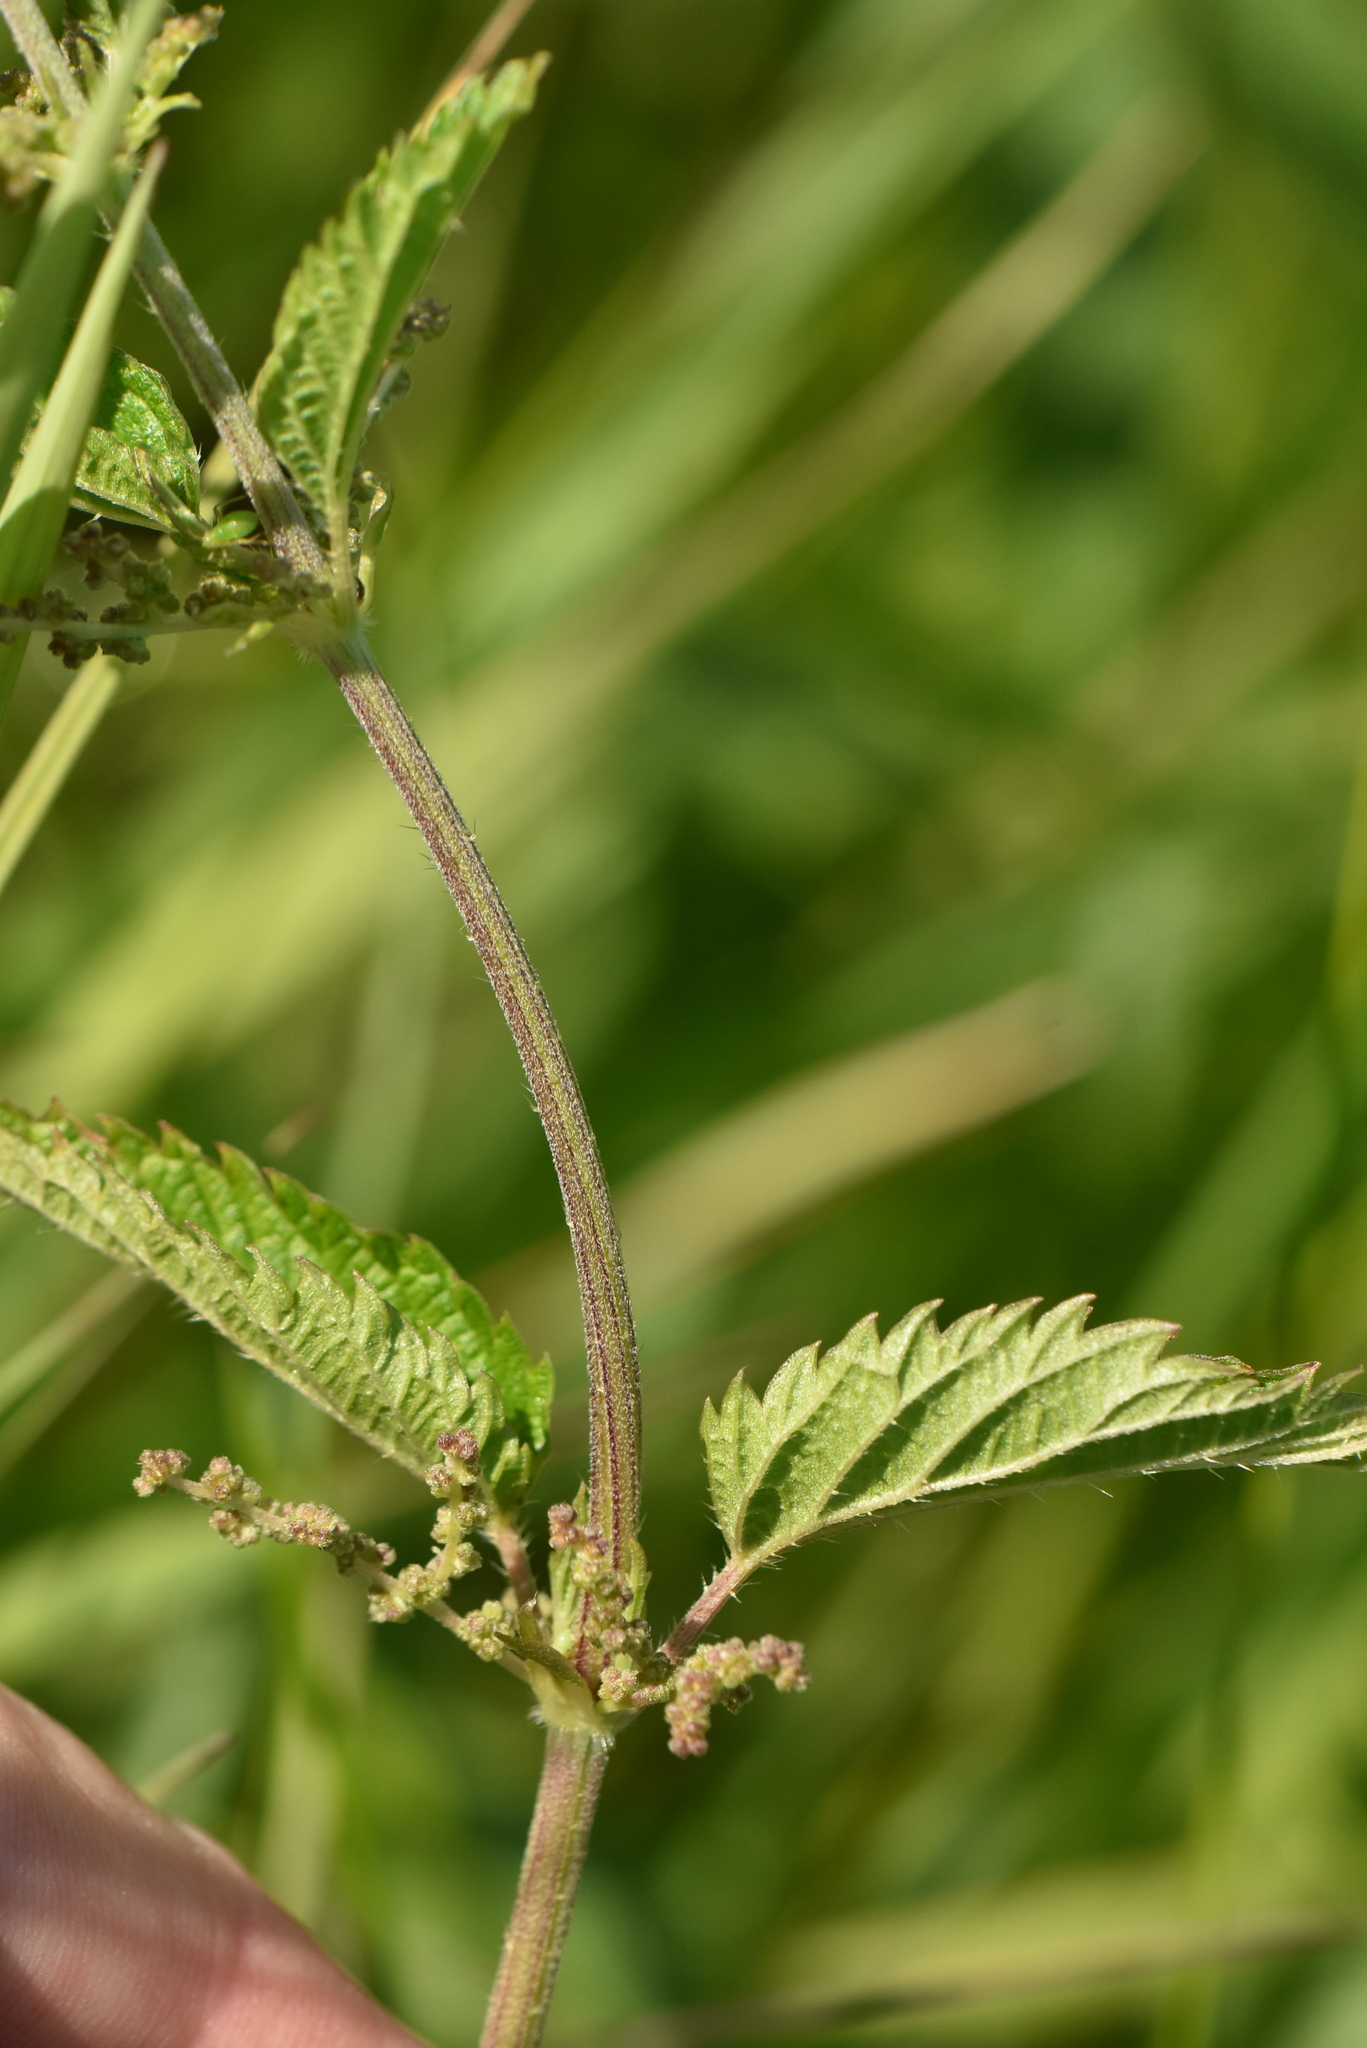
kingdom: Plantae
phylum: Tracheophyta
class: Magnoliopsida
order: Rosales
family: Urticaceae
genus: Urtica
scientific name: Urtica dioica
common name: Common nettle
